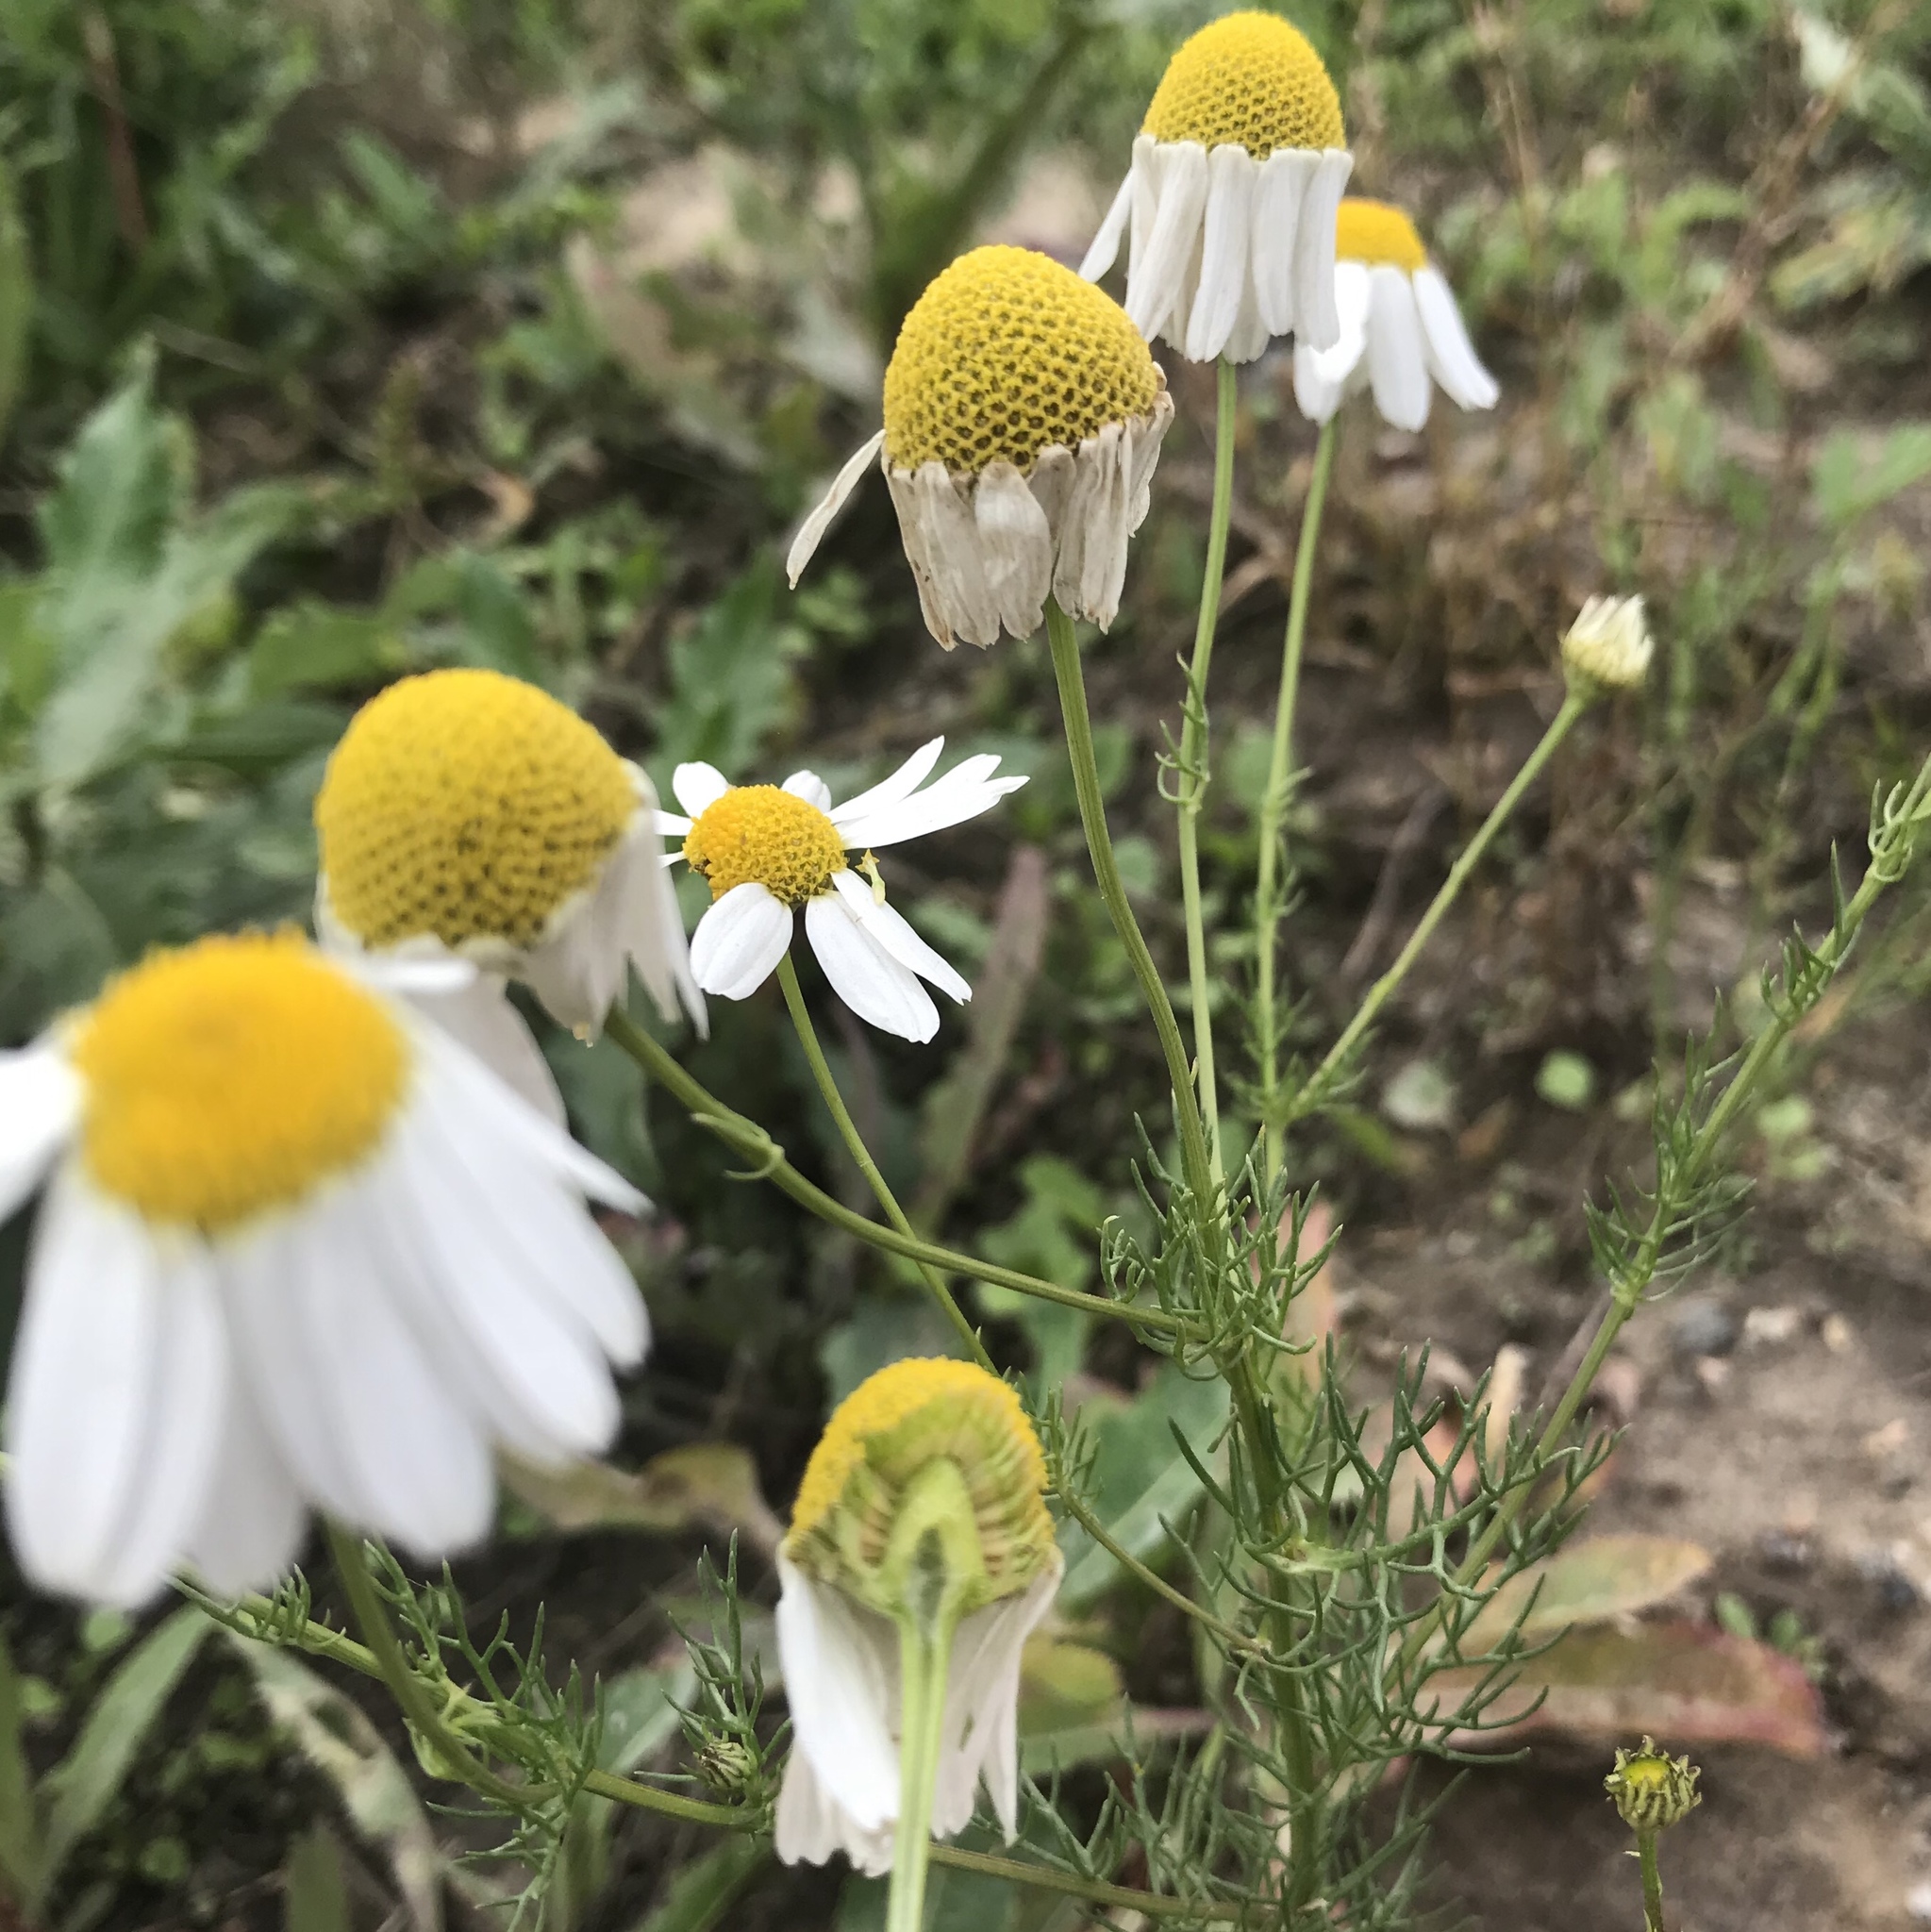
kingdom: Plantae
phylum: Tracheophyta
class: Magnoliopsida
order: Asterales
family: Asteraceae
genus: Tripleurospermum
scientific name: Tripleurospermum inodorum
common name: Scentless mayweed
